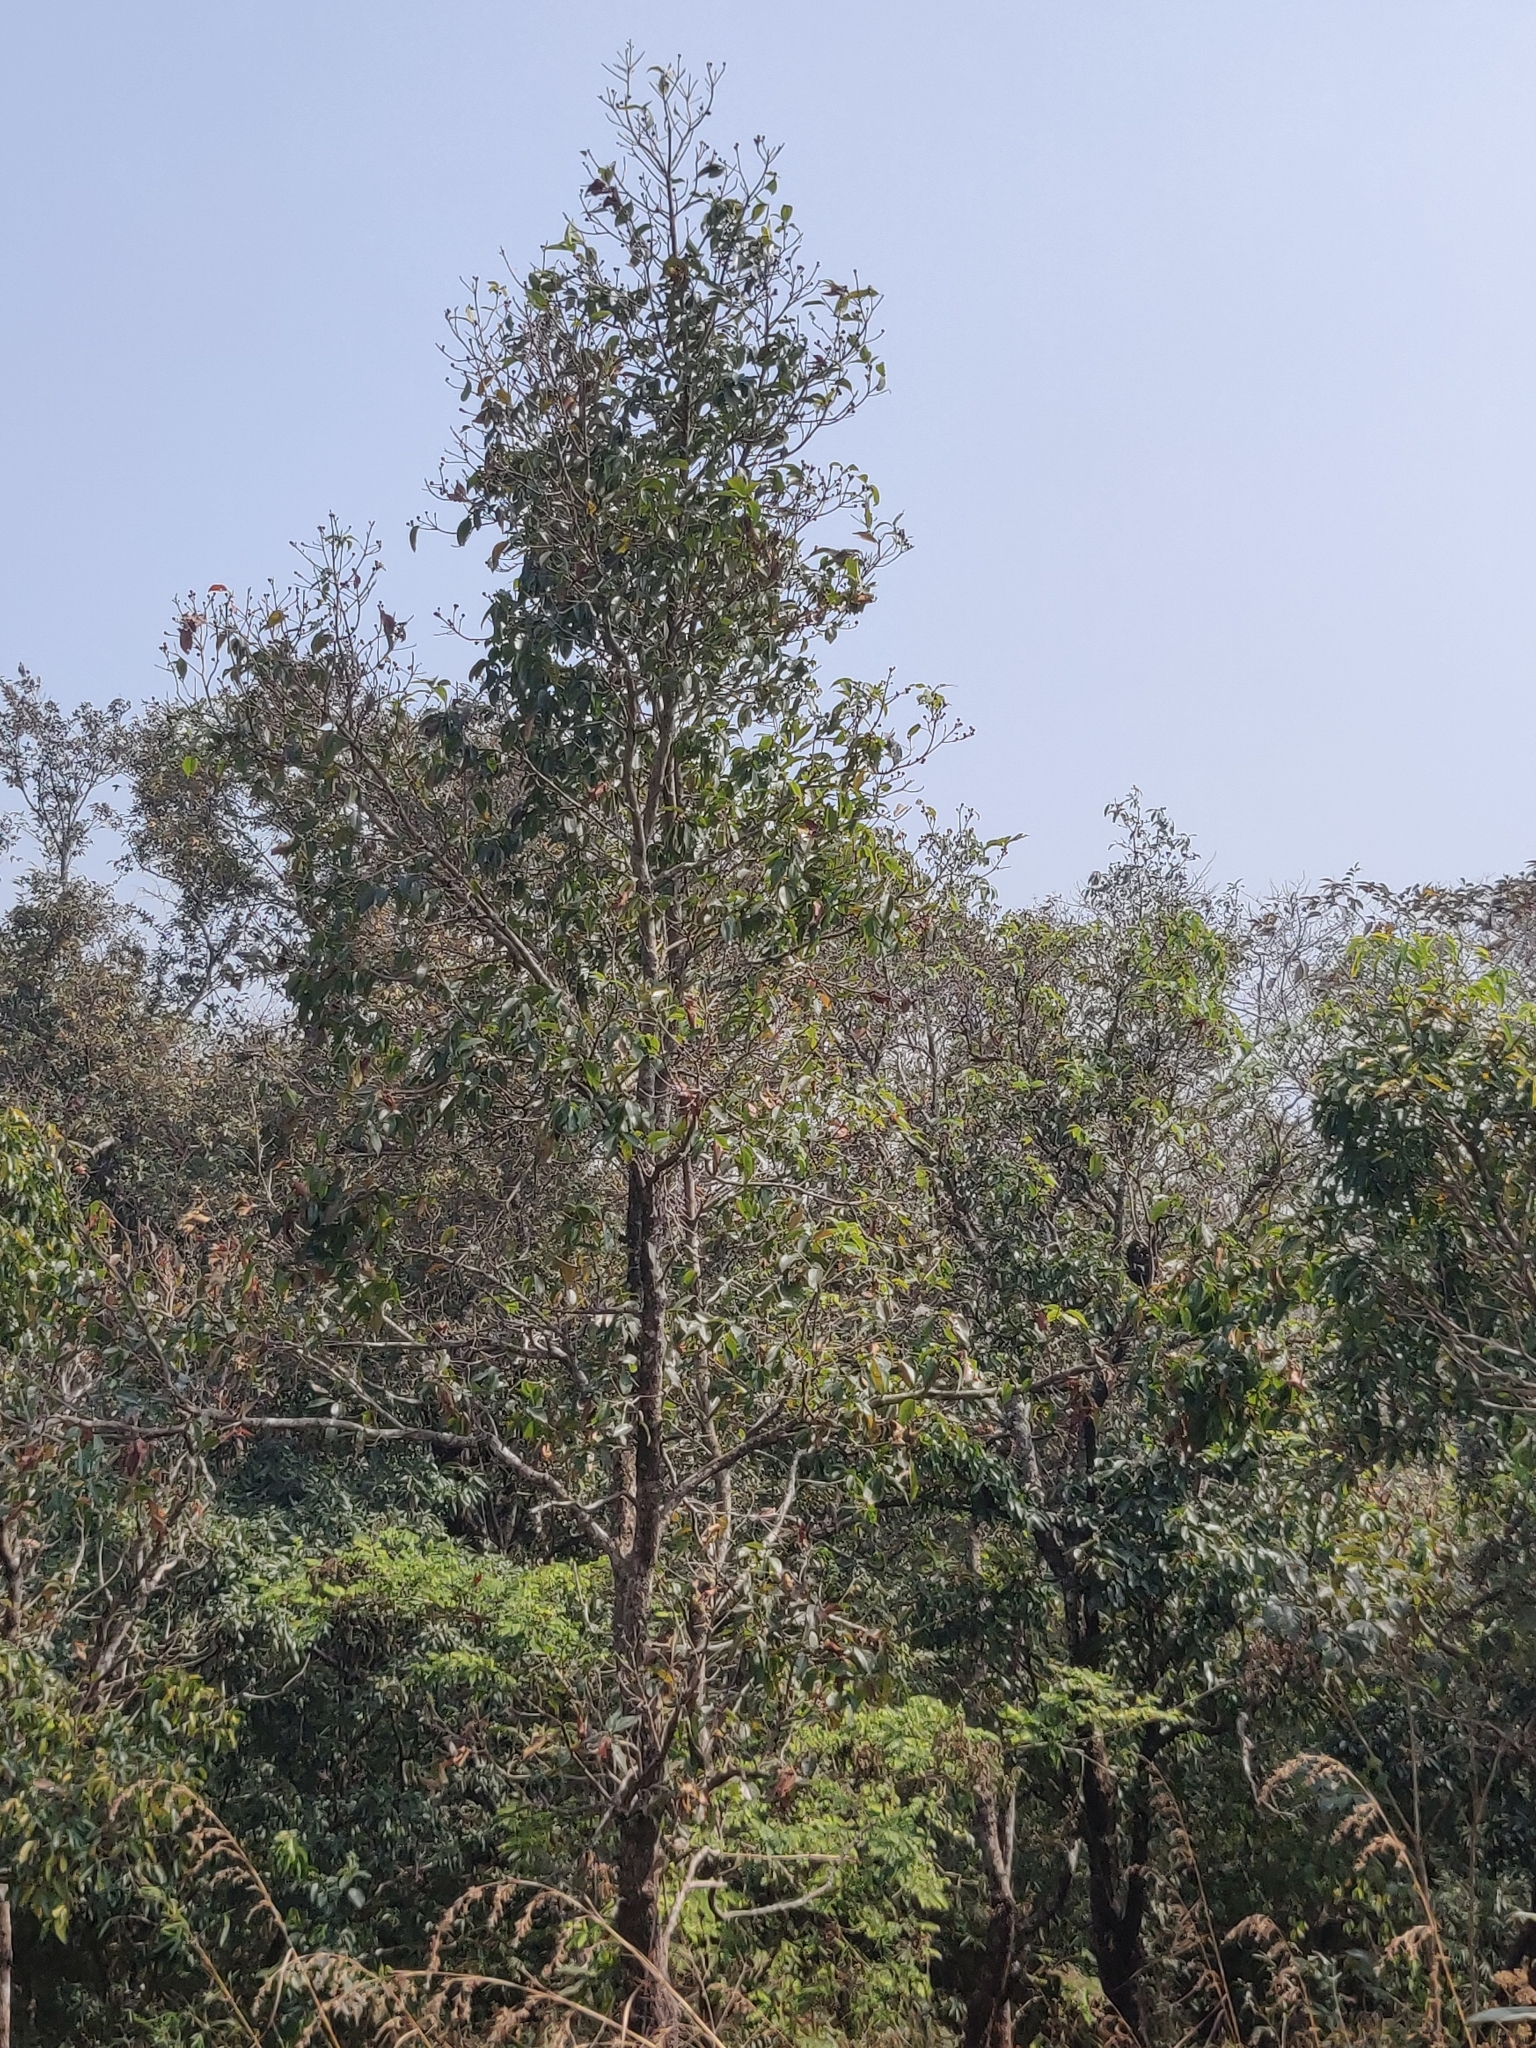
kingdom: Plantae
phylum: Tracheophyta
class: Magnoliopsida
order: Ericales
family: Theaceae
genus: Schima
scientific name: Schima wallichii
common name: Schima
